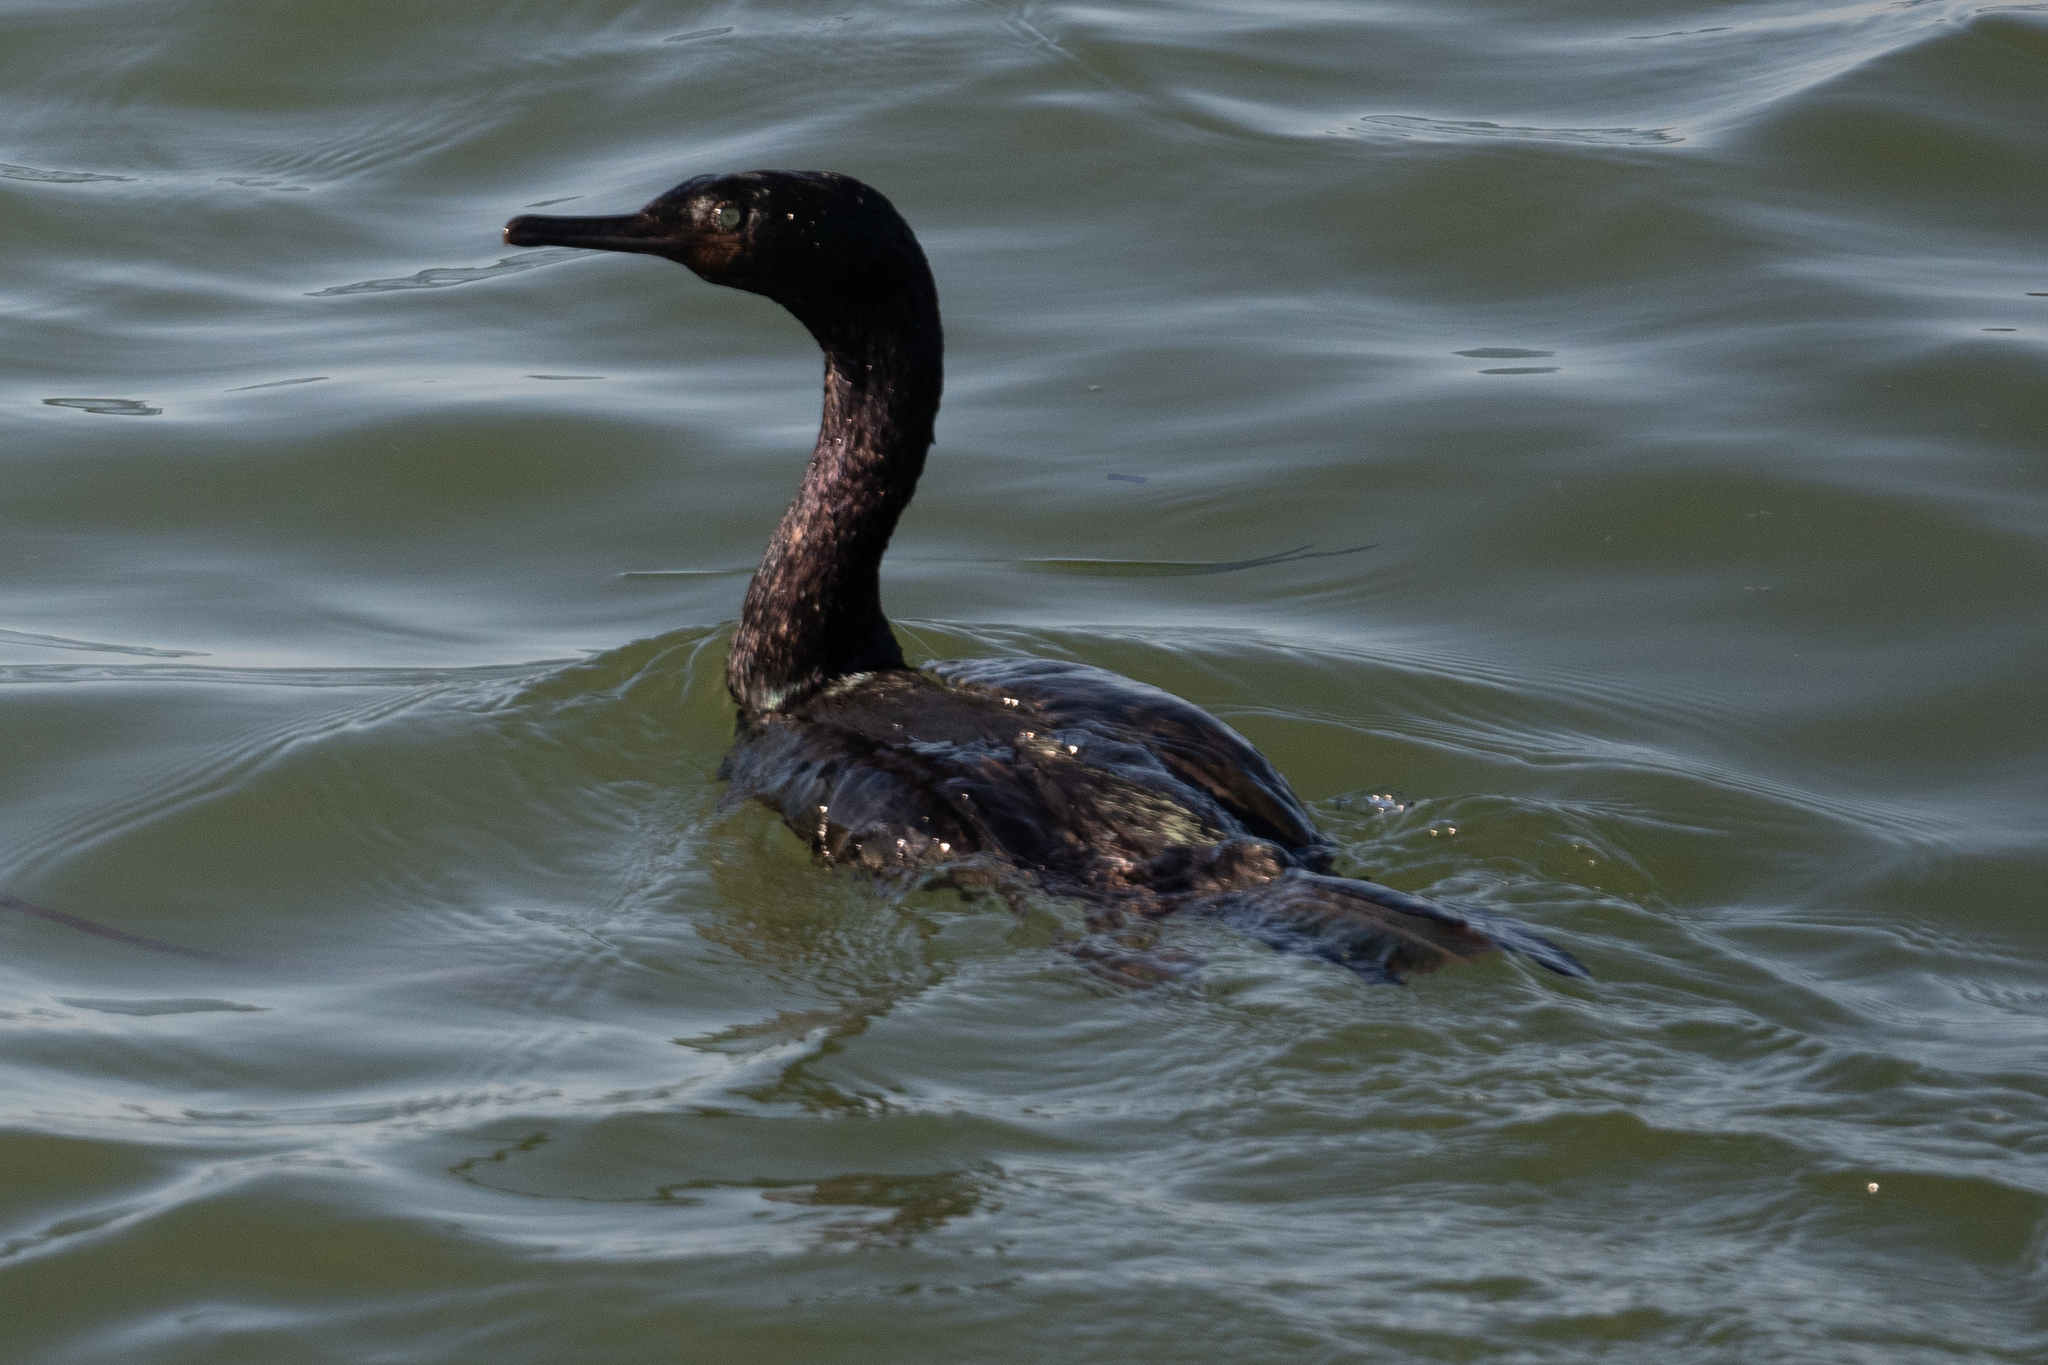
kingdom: Animalia
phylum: Chordata
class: Aves
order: Suliformes
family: Phalacrocoracidae
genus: Phalacrocorax
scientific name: Phalacrocorax pelagicus
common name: Pelagic cormorant
